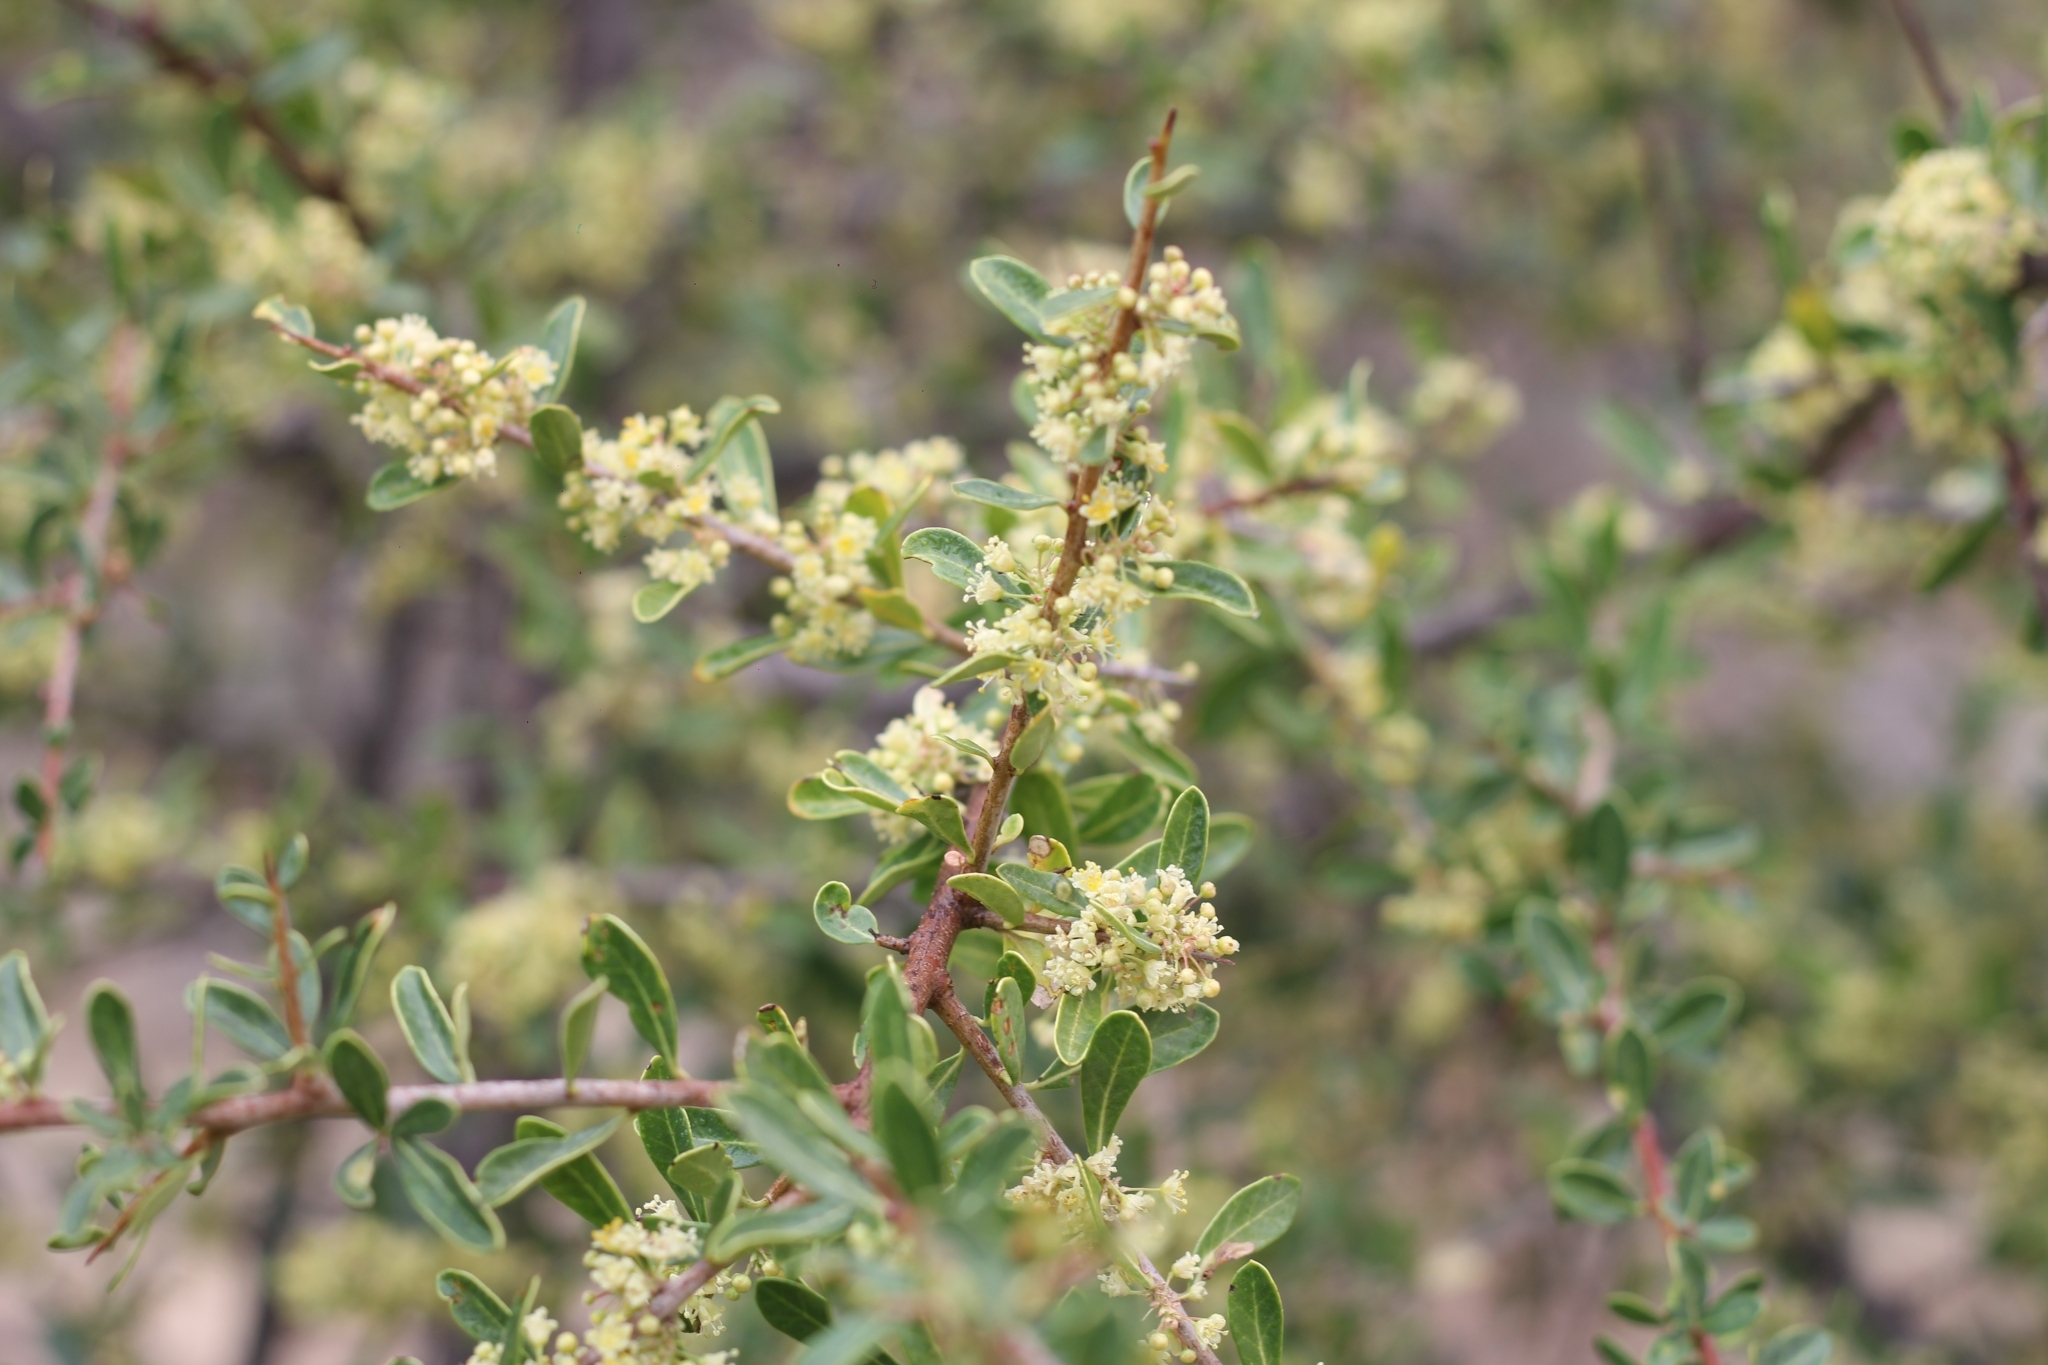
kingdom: Plantae
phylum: Tracheophyta
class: Magnoliopsida
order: Sapindales
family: Anacardiaceae
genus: Schinus
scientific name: Schinus pilifera
